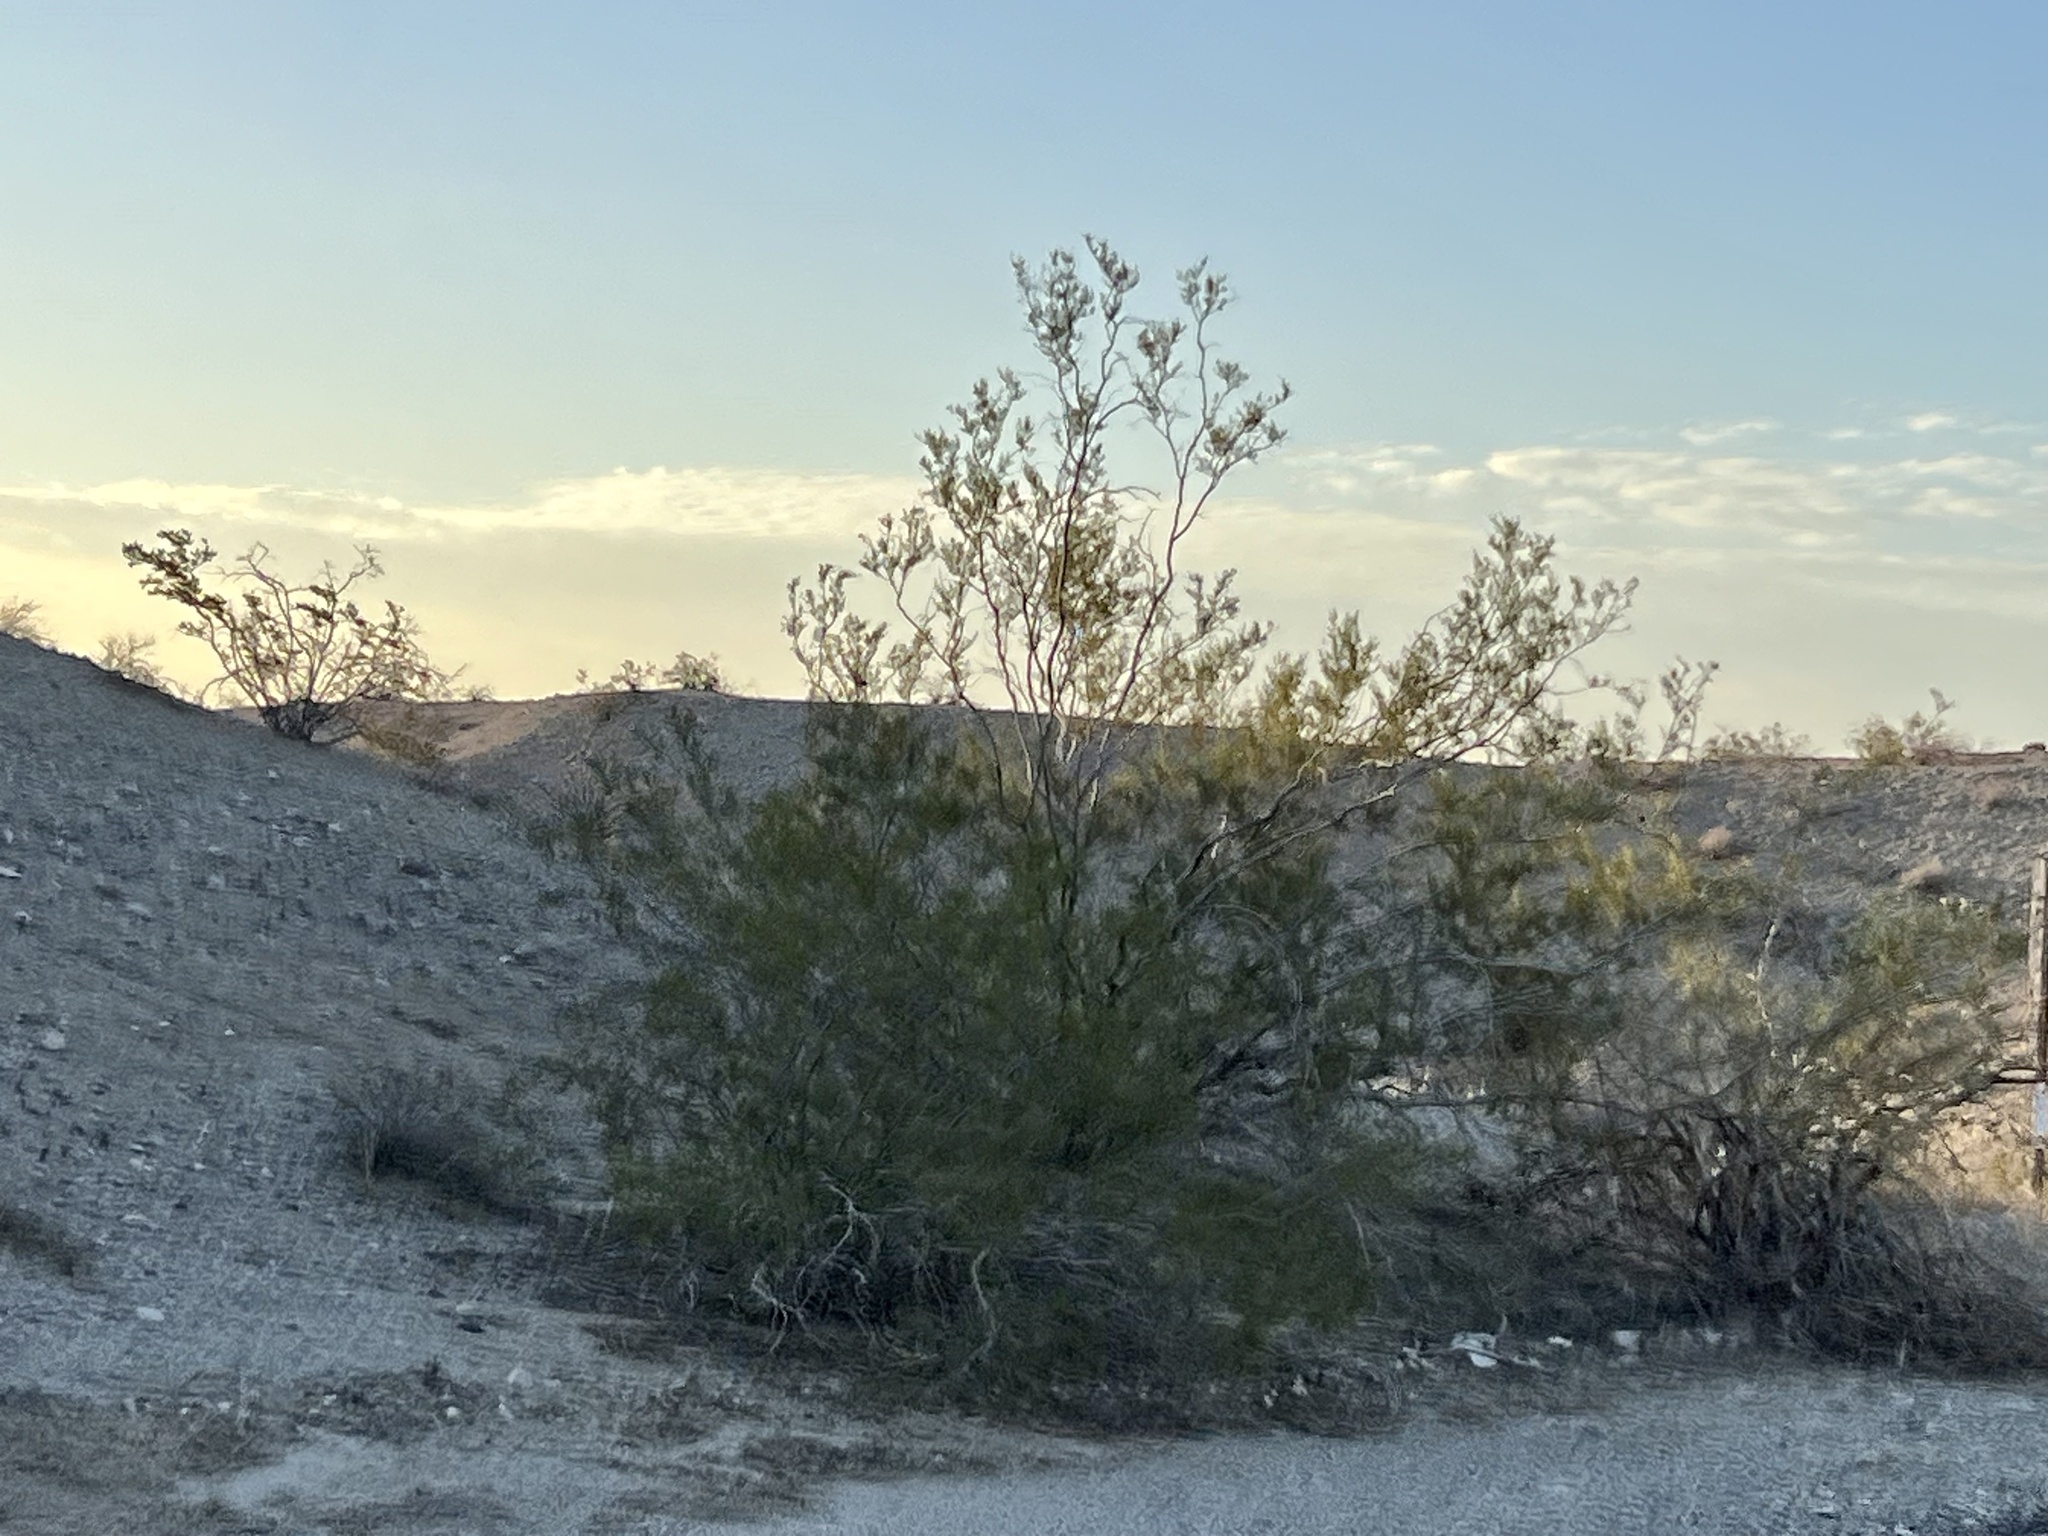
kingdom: Plantae
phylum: Tracheophyta
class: Magnoliopsida
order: Zygophyllales
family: Zygophyllaceae
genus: Larrea
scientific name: Larrea tridentata
